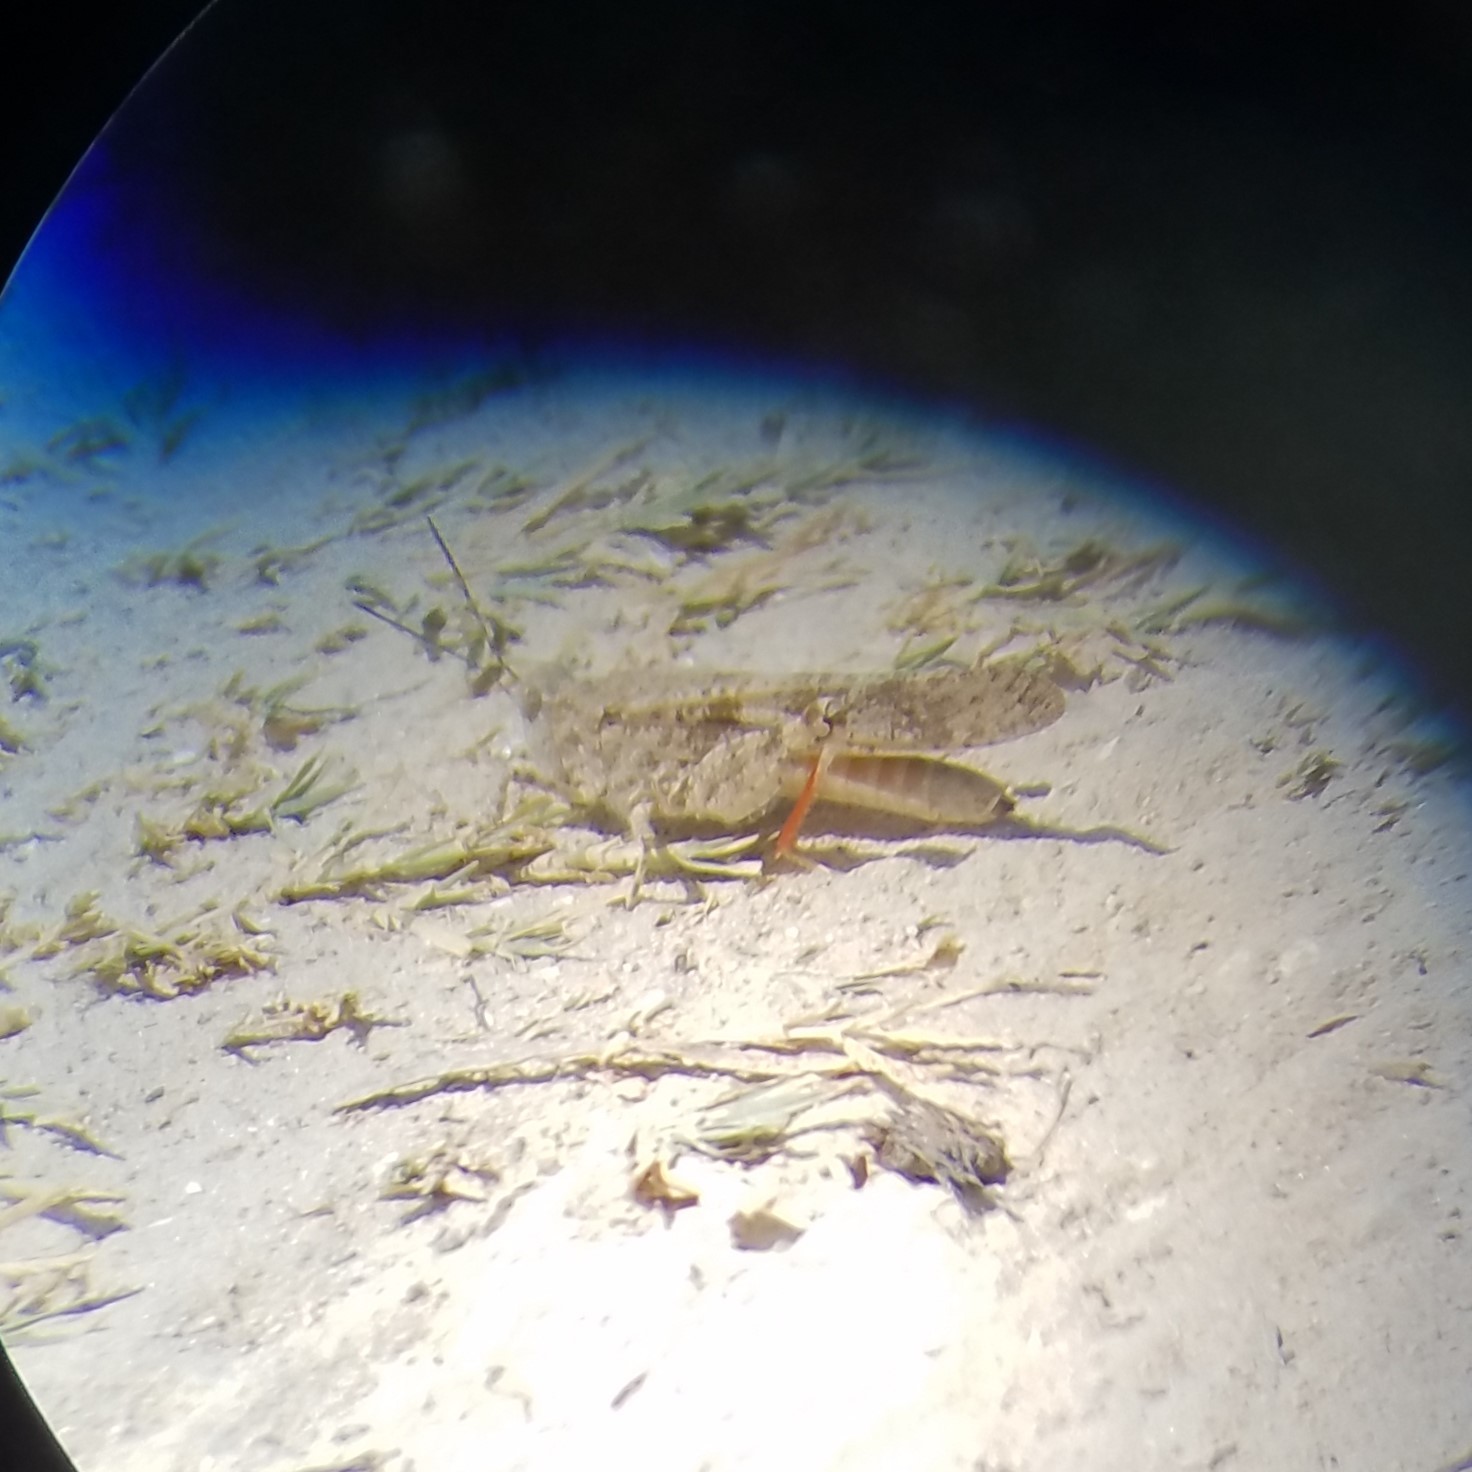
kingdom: Animalia
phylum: Arthropoda
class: Insecta
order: Orthoptera
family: Acrididae
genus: Trimerotropis
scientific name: Trimerotropis maritima
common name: Seaside locust
